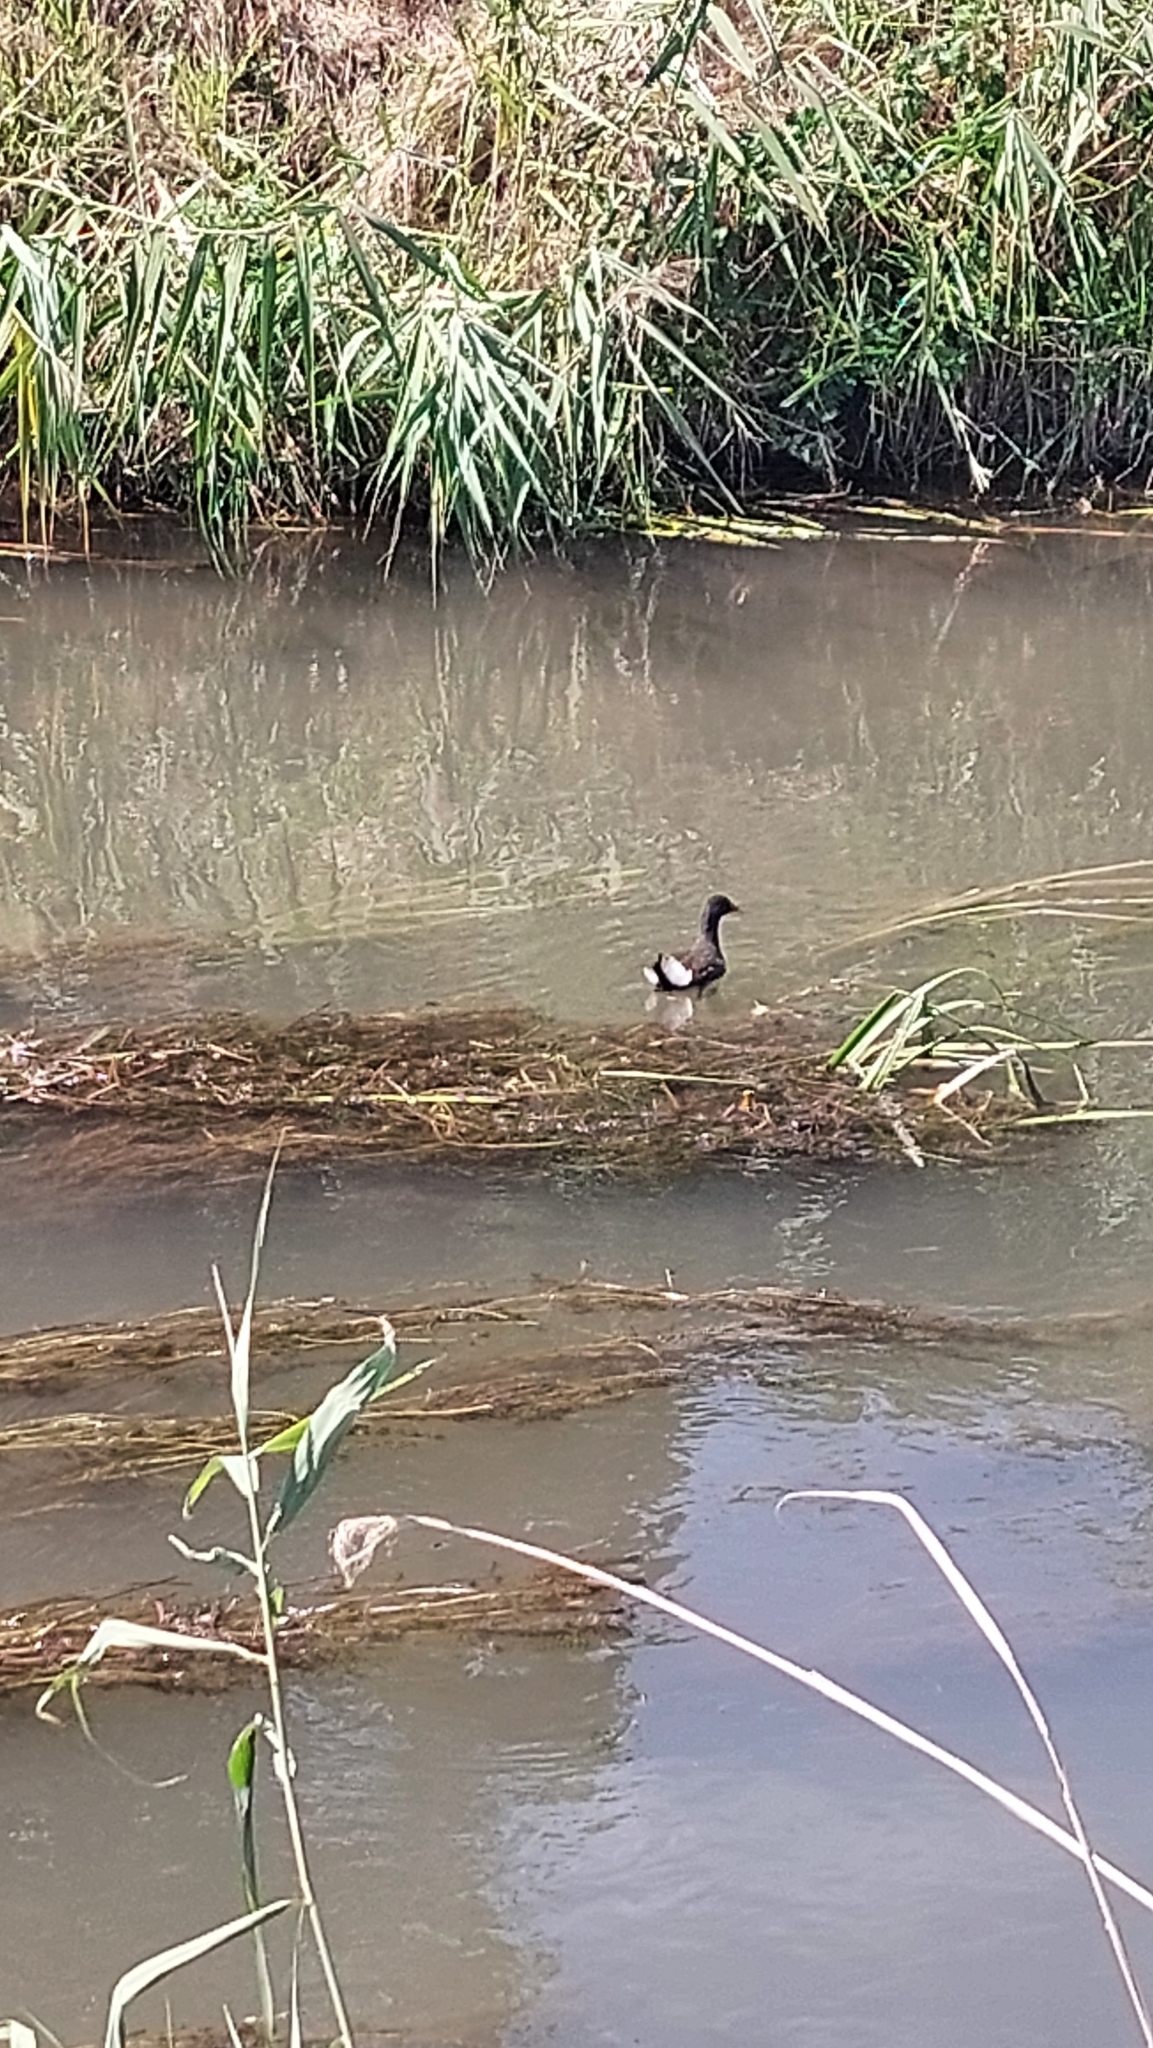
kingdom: Animalia
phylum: Chordata
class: Aves
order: Gruiformes
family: Rallidae
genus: Gallinula
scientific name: Gallinula chloropus
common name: Common moorhen
